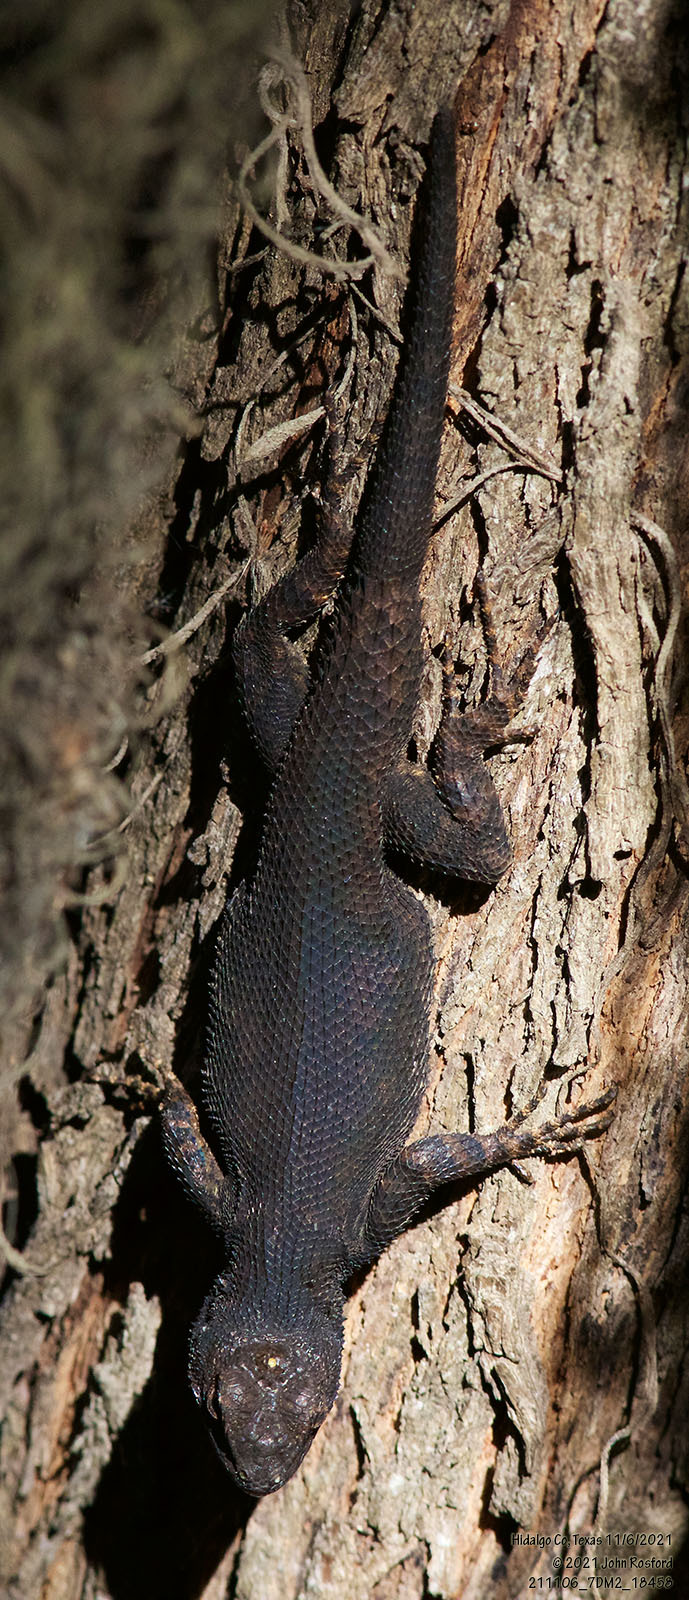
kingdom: Animalia
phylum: Chordata
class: Squamata
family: Phrynosomatidae
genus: Sceloporus
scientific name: Sceloporus grammicus
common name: Mesquite lizard
